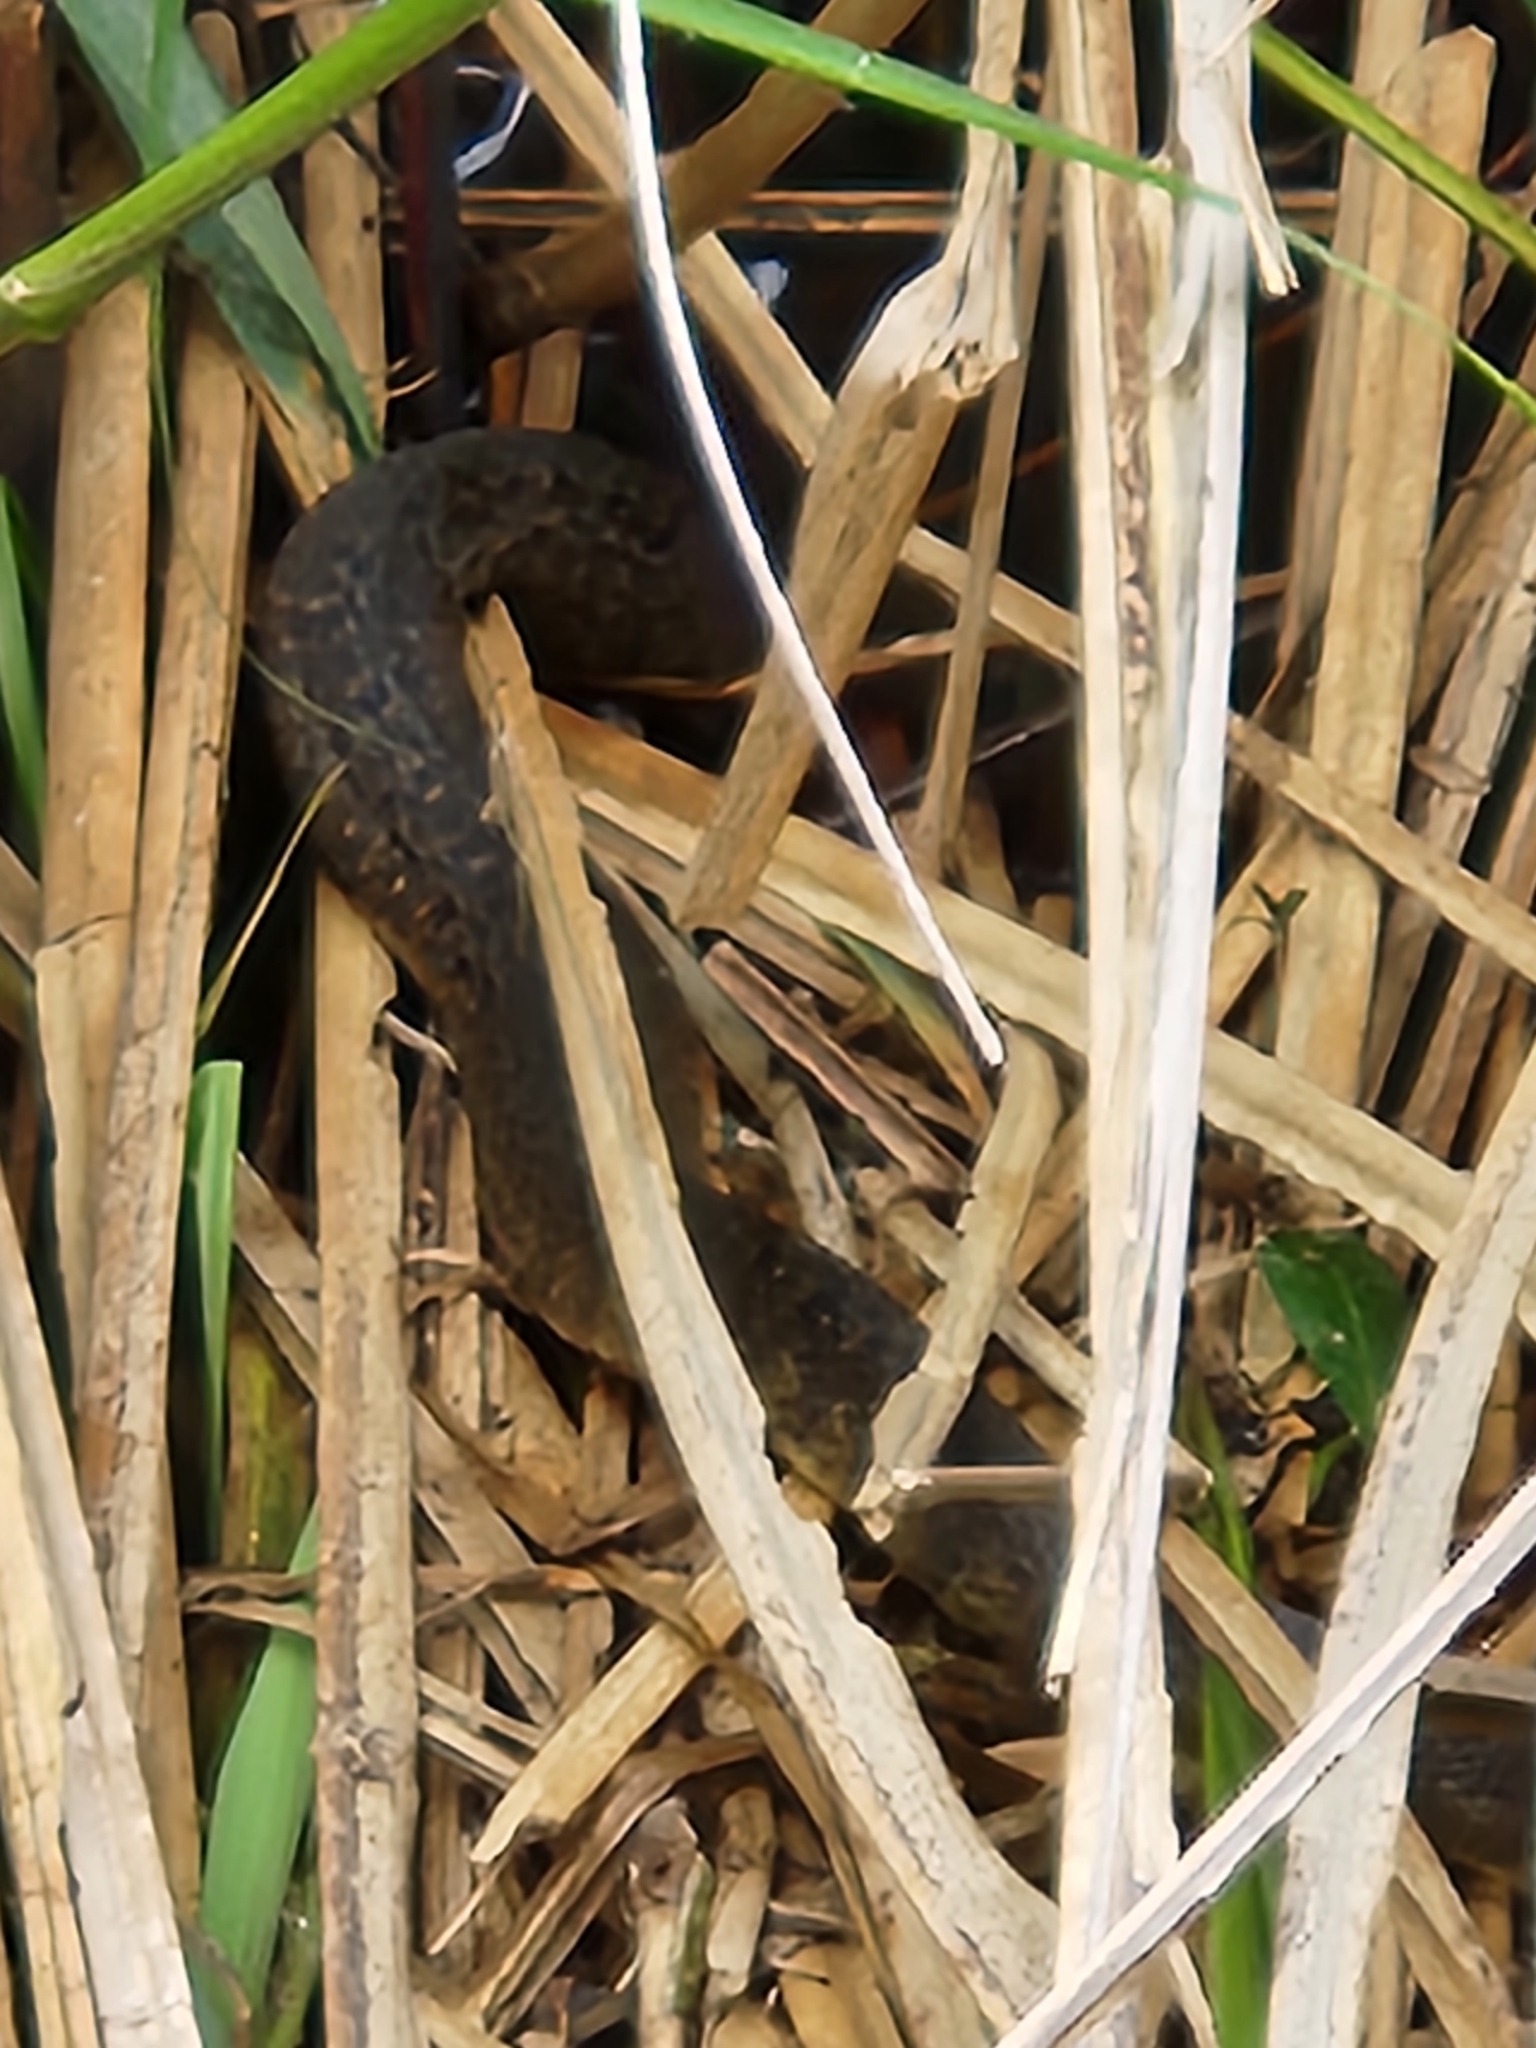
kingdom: Animalia
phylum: Chordata
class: Squamata
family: Colubridae
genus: Nerodia
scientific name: Nerodia cyclopion
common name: Mississippi green water snake
